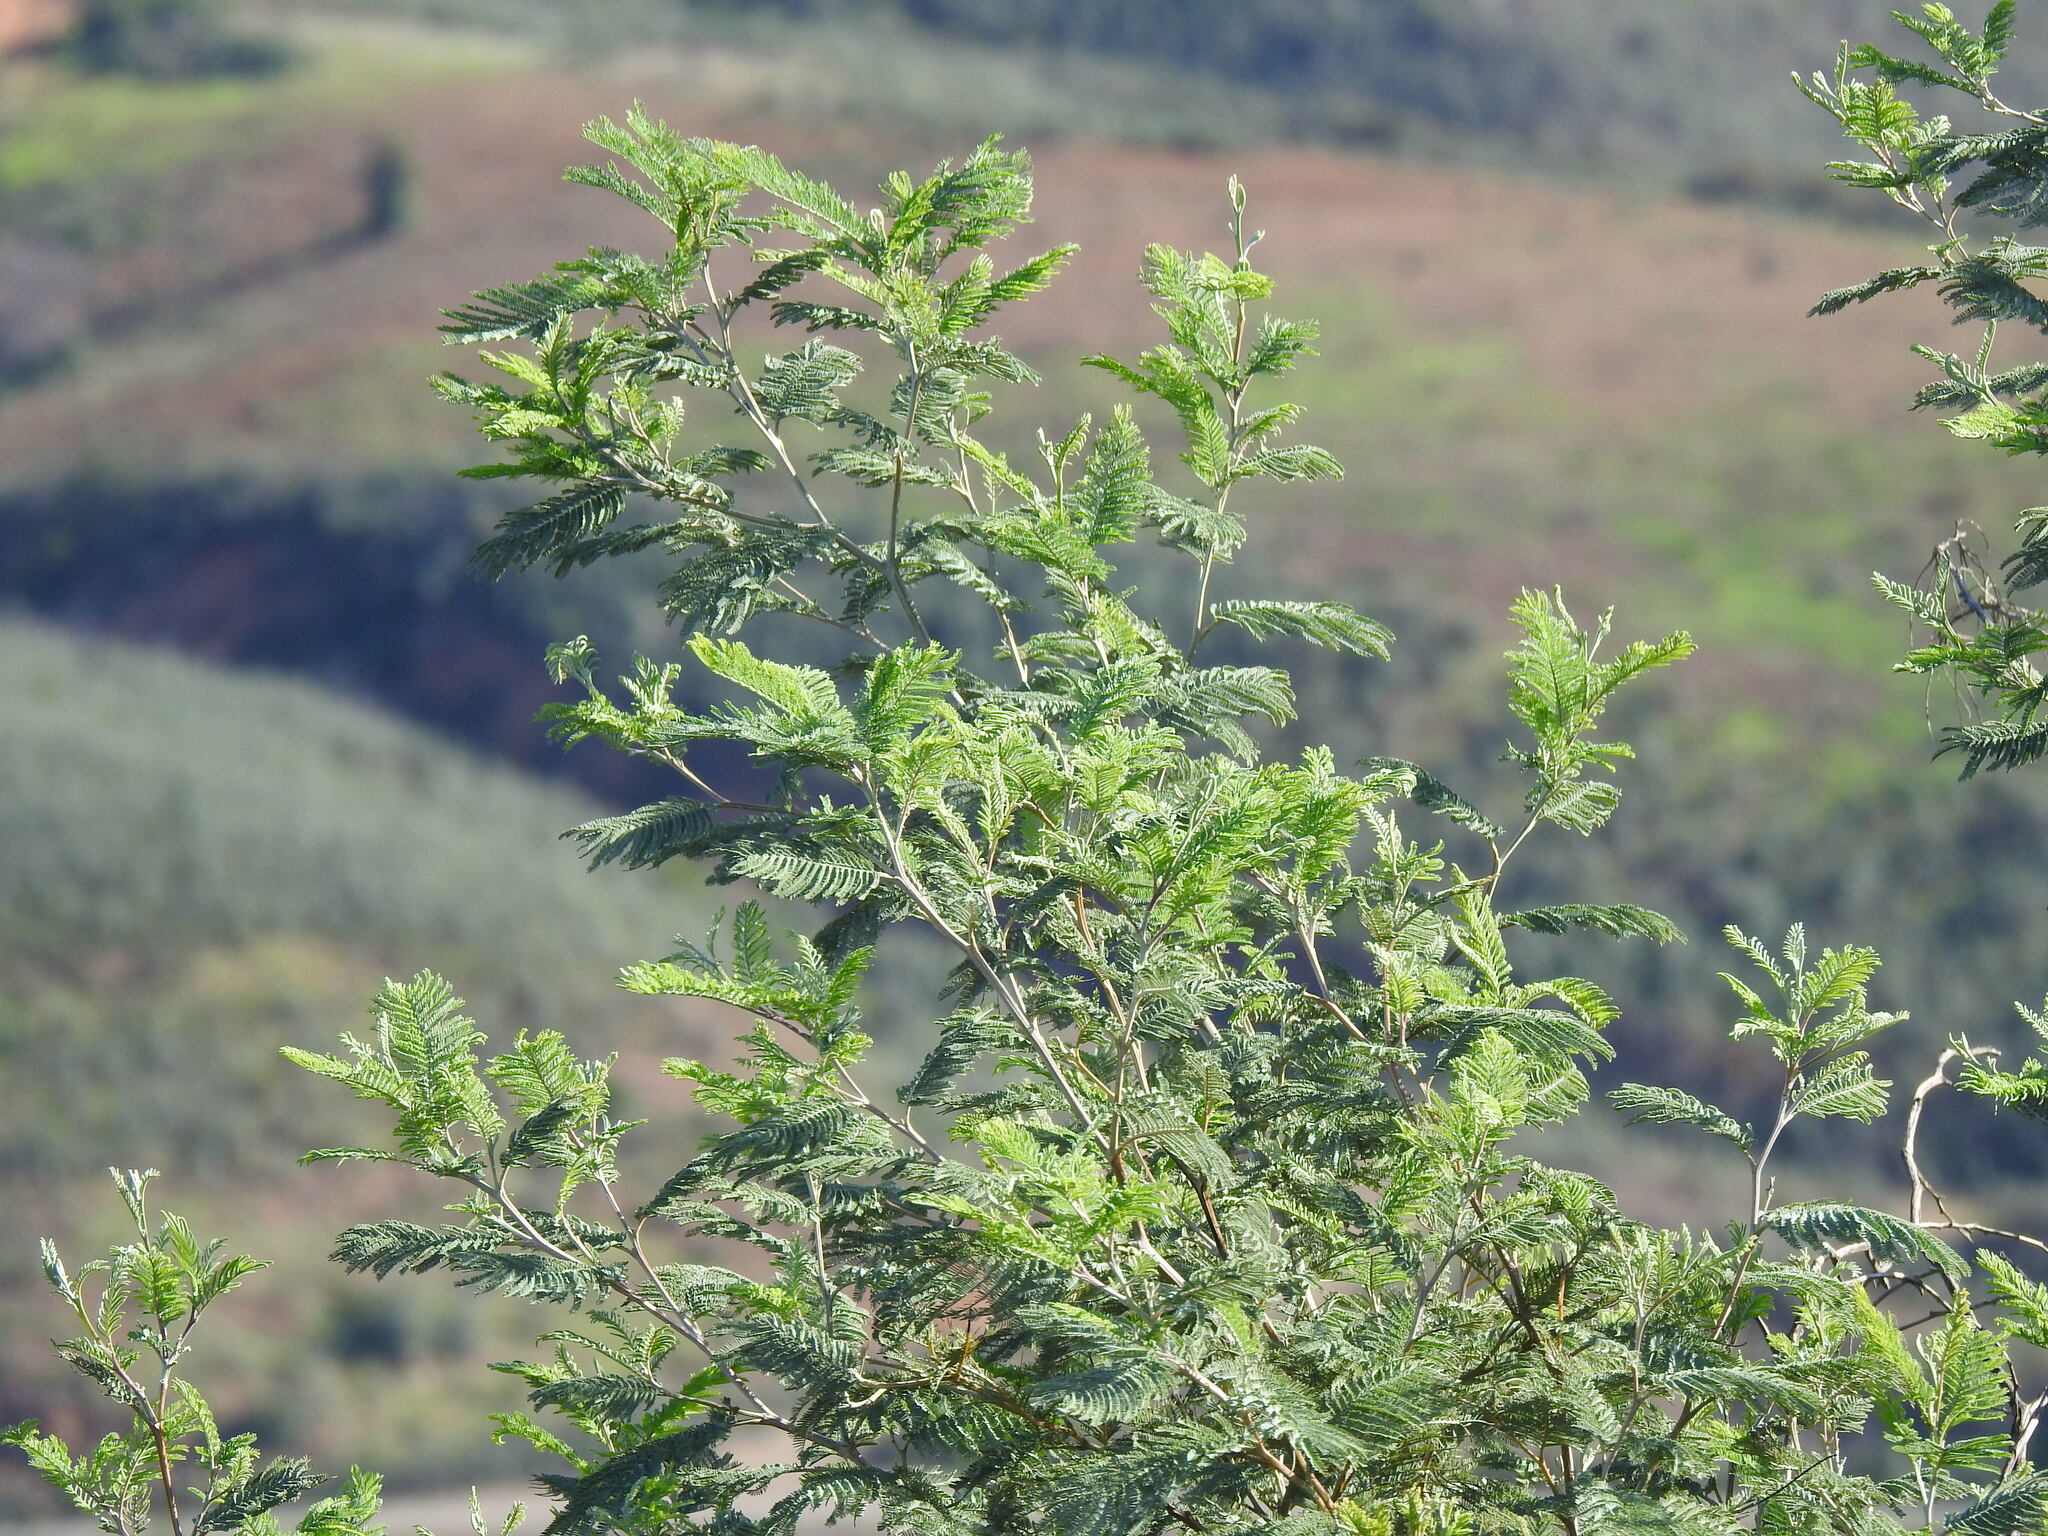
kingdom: Plantae
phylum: Tracheophyta
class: Magnoliopsida
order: Fabales
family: Fabaceae
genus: Acacia
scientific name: Acacia dealbata
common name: Silver wattle
